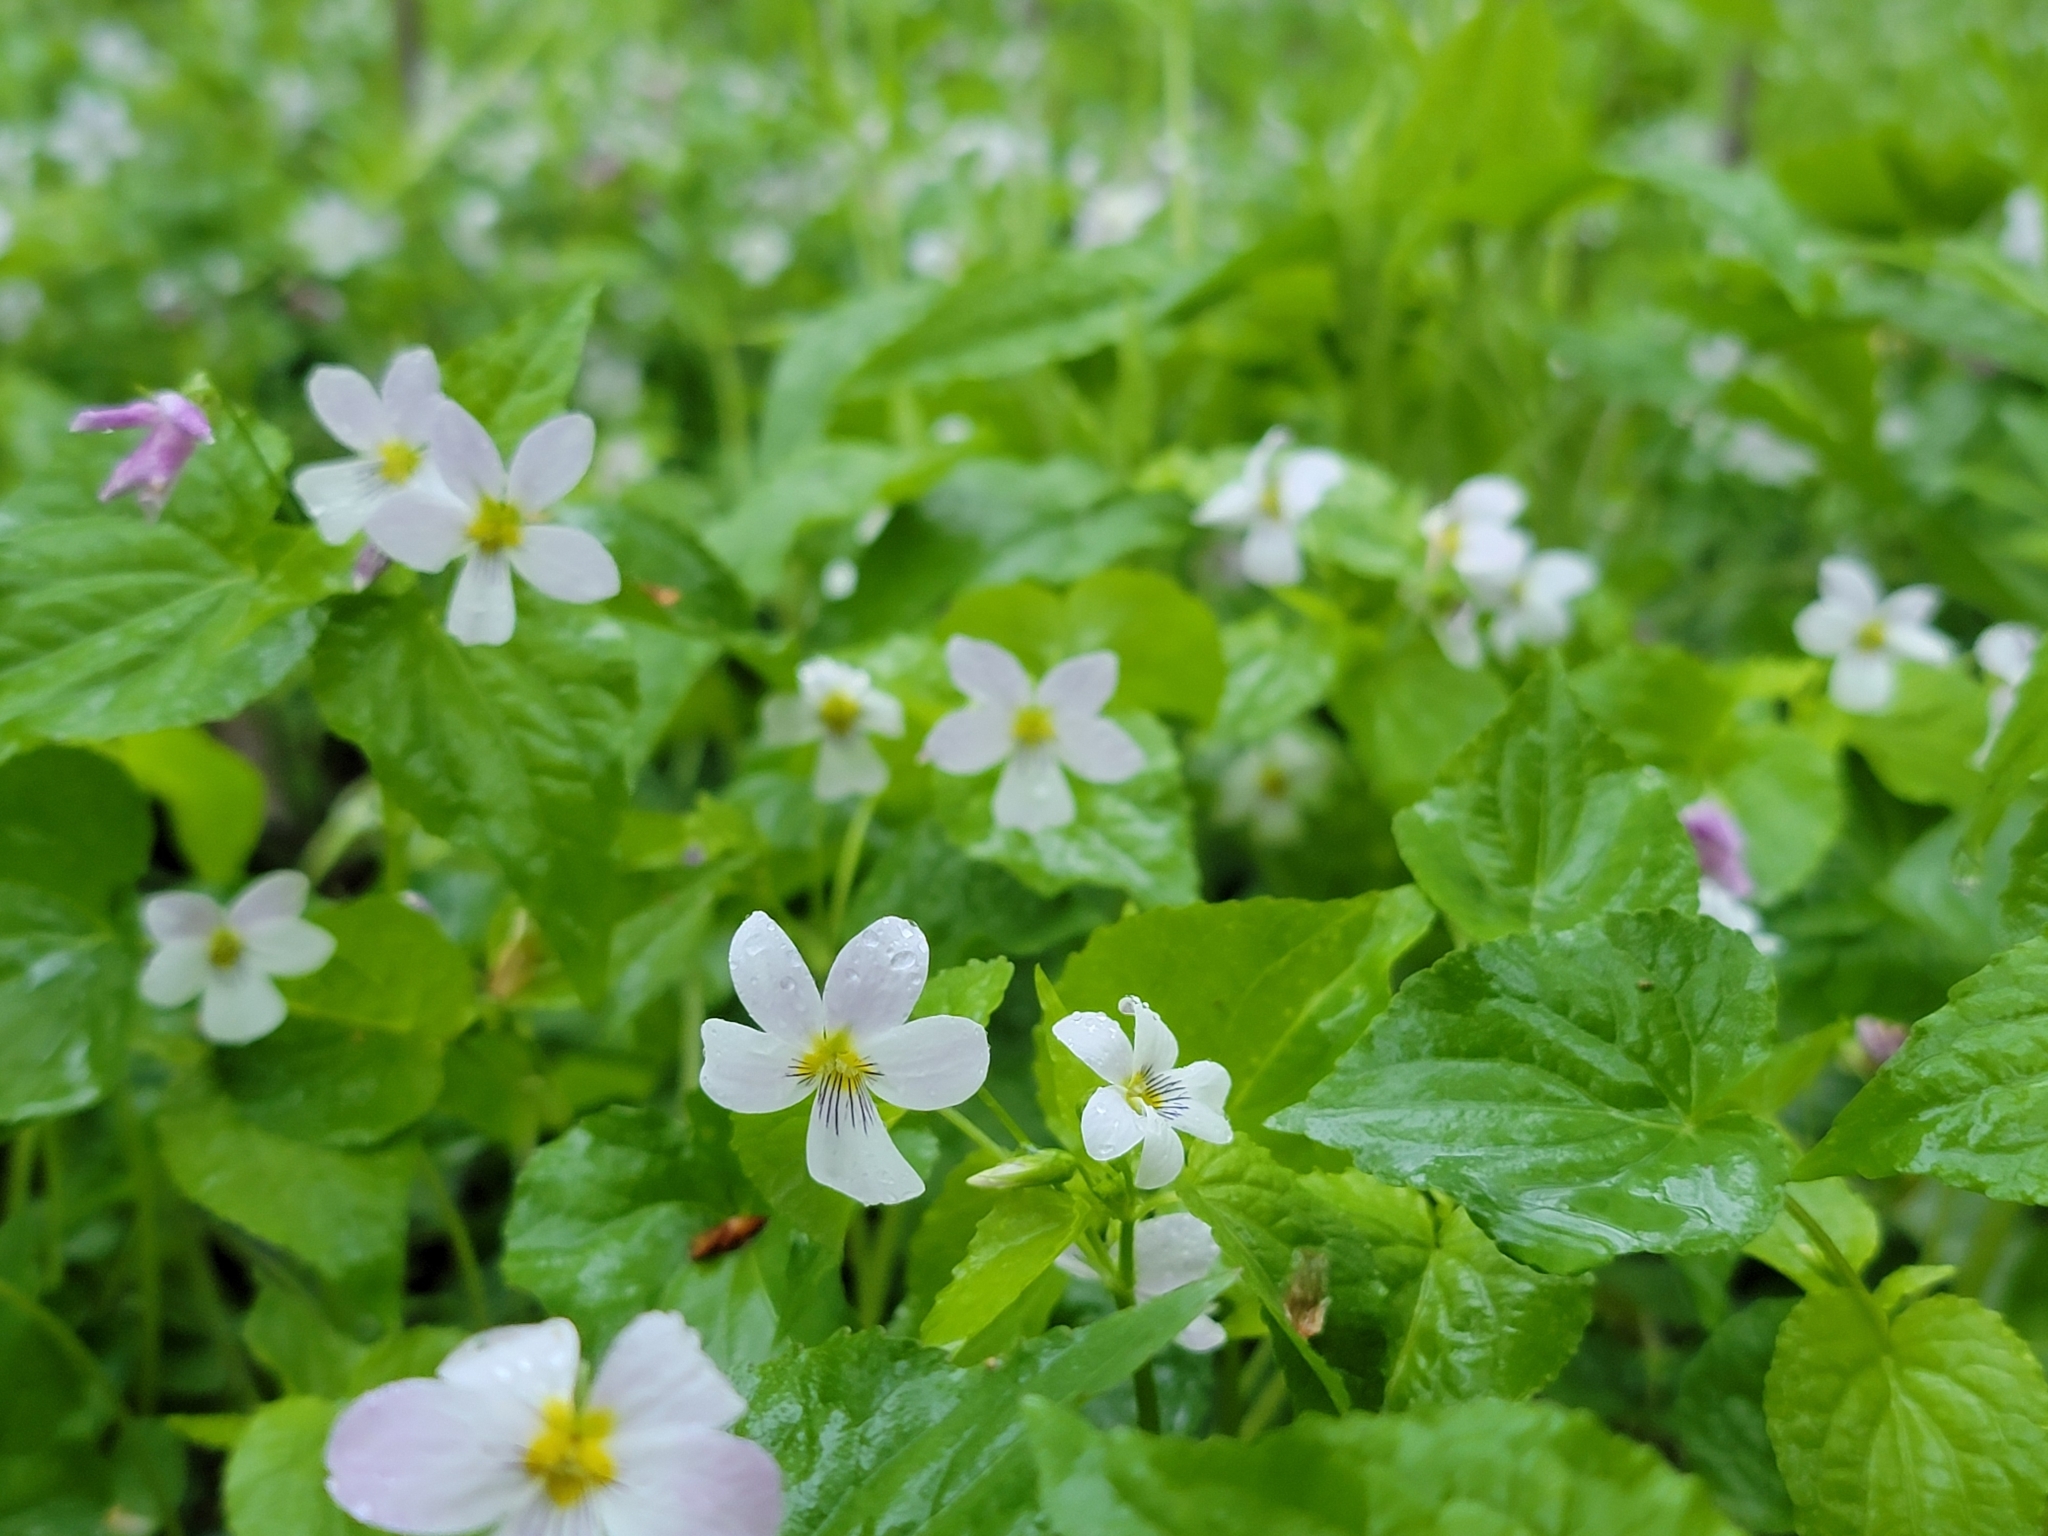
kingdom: Plantae
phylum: Tracheophyta
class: Magnoliopsida
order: Malpighiales
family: Violaceae
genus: Viola
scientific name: Viola canadensis
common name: Canada violet
